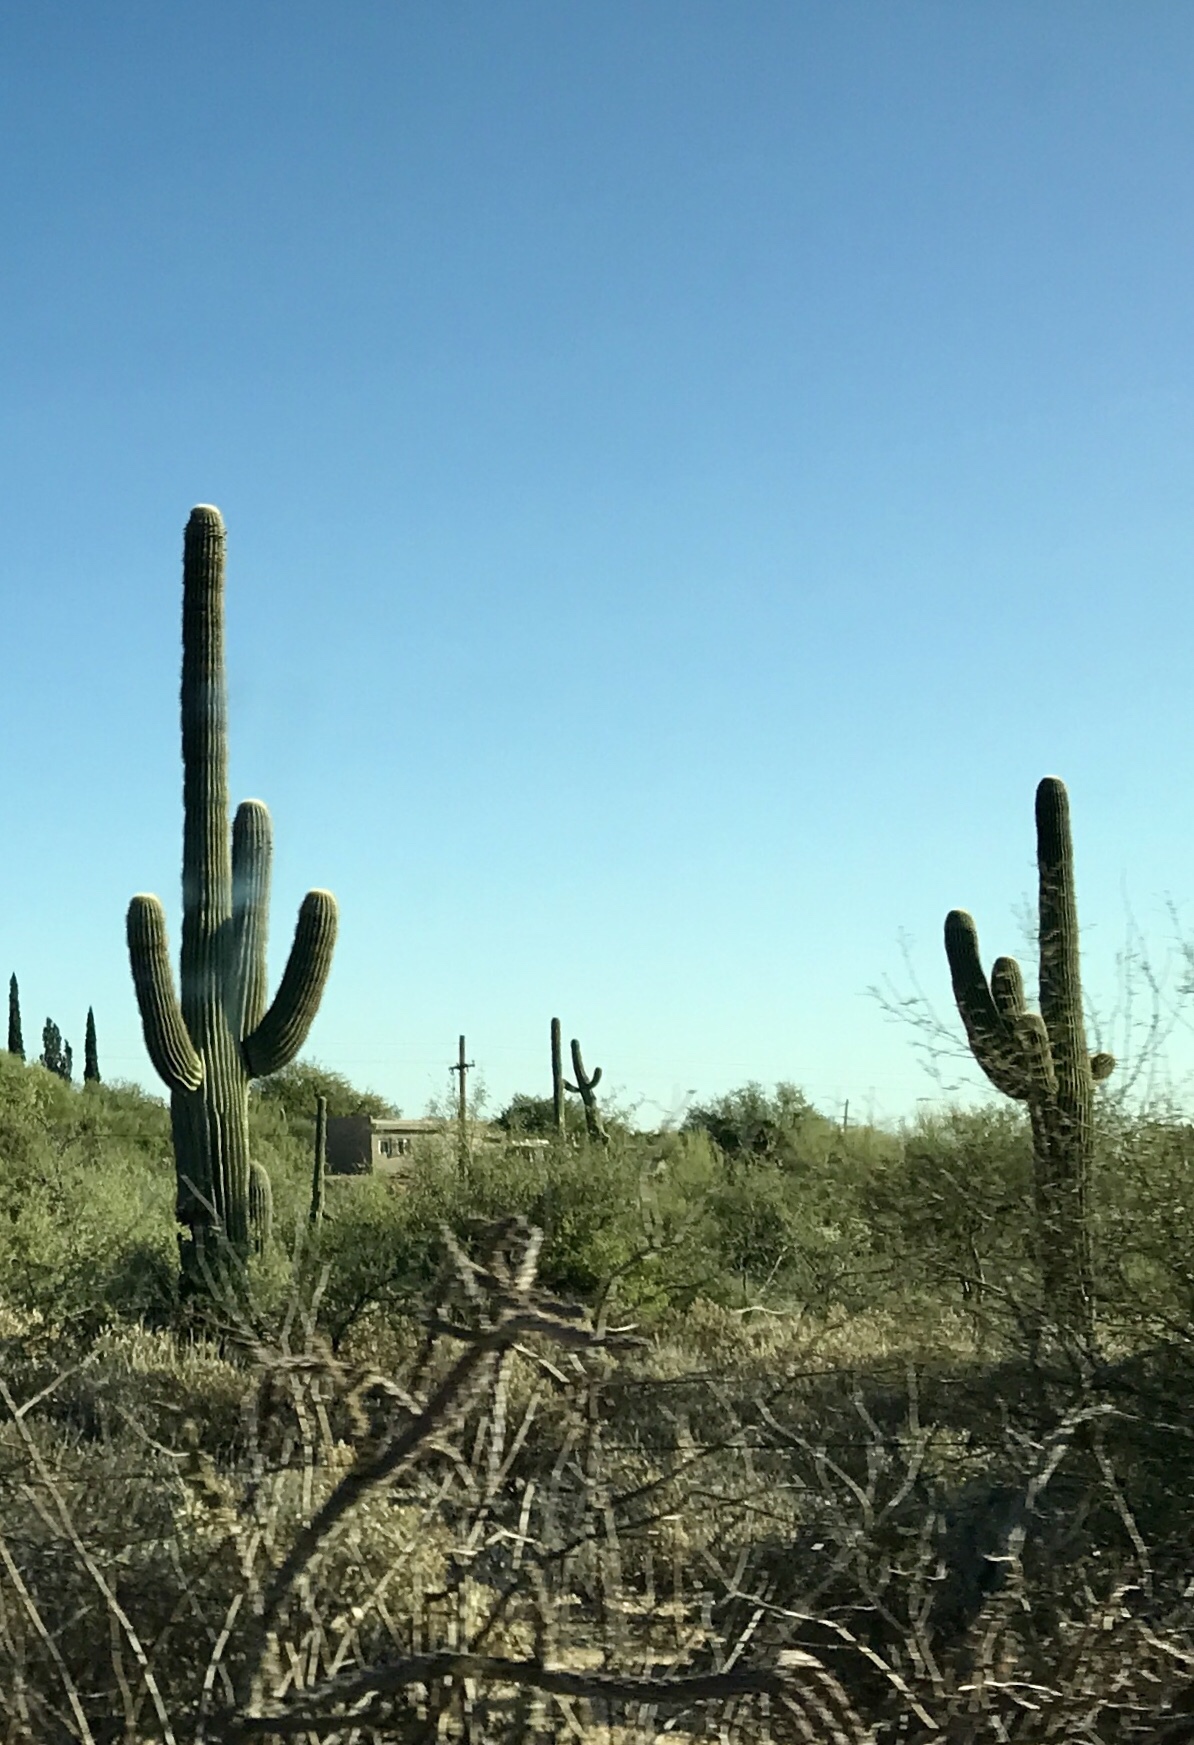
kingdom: Plantae
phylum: Tracheophyta
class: Magnoliopsida
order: Caryophyllales
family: Cactaceae
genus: Carnegiea
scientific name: Carnegiea gigantea
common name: Saguaro
